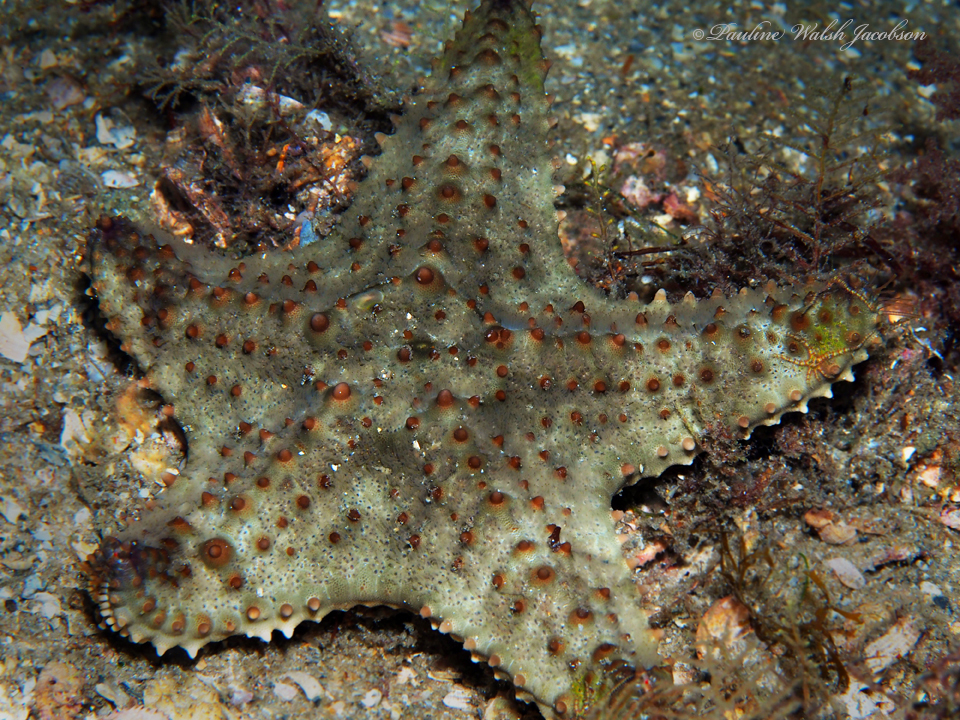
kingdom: Animalia
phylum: Echinodermata
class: Asteroidea
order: Valvatida
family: Oreasteridae
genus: Oreaster
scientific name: Oreaster reticulatus
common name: Cushion sea star
